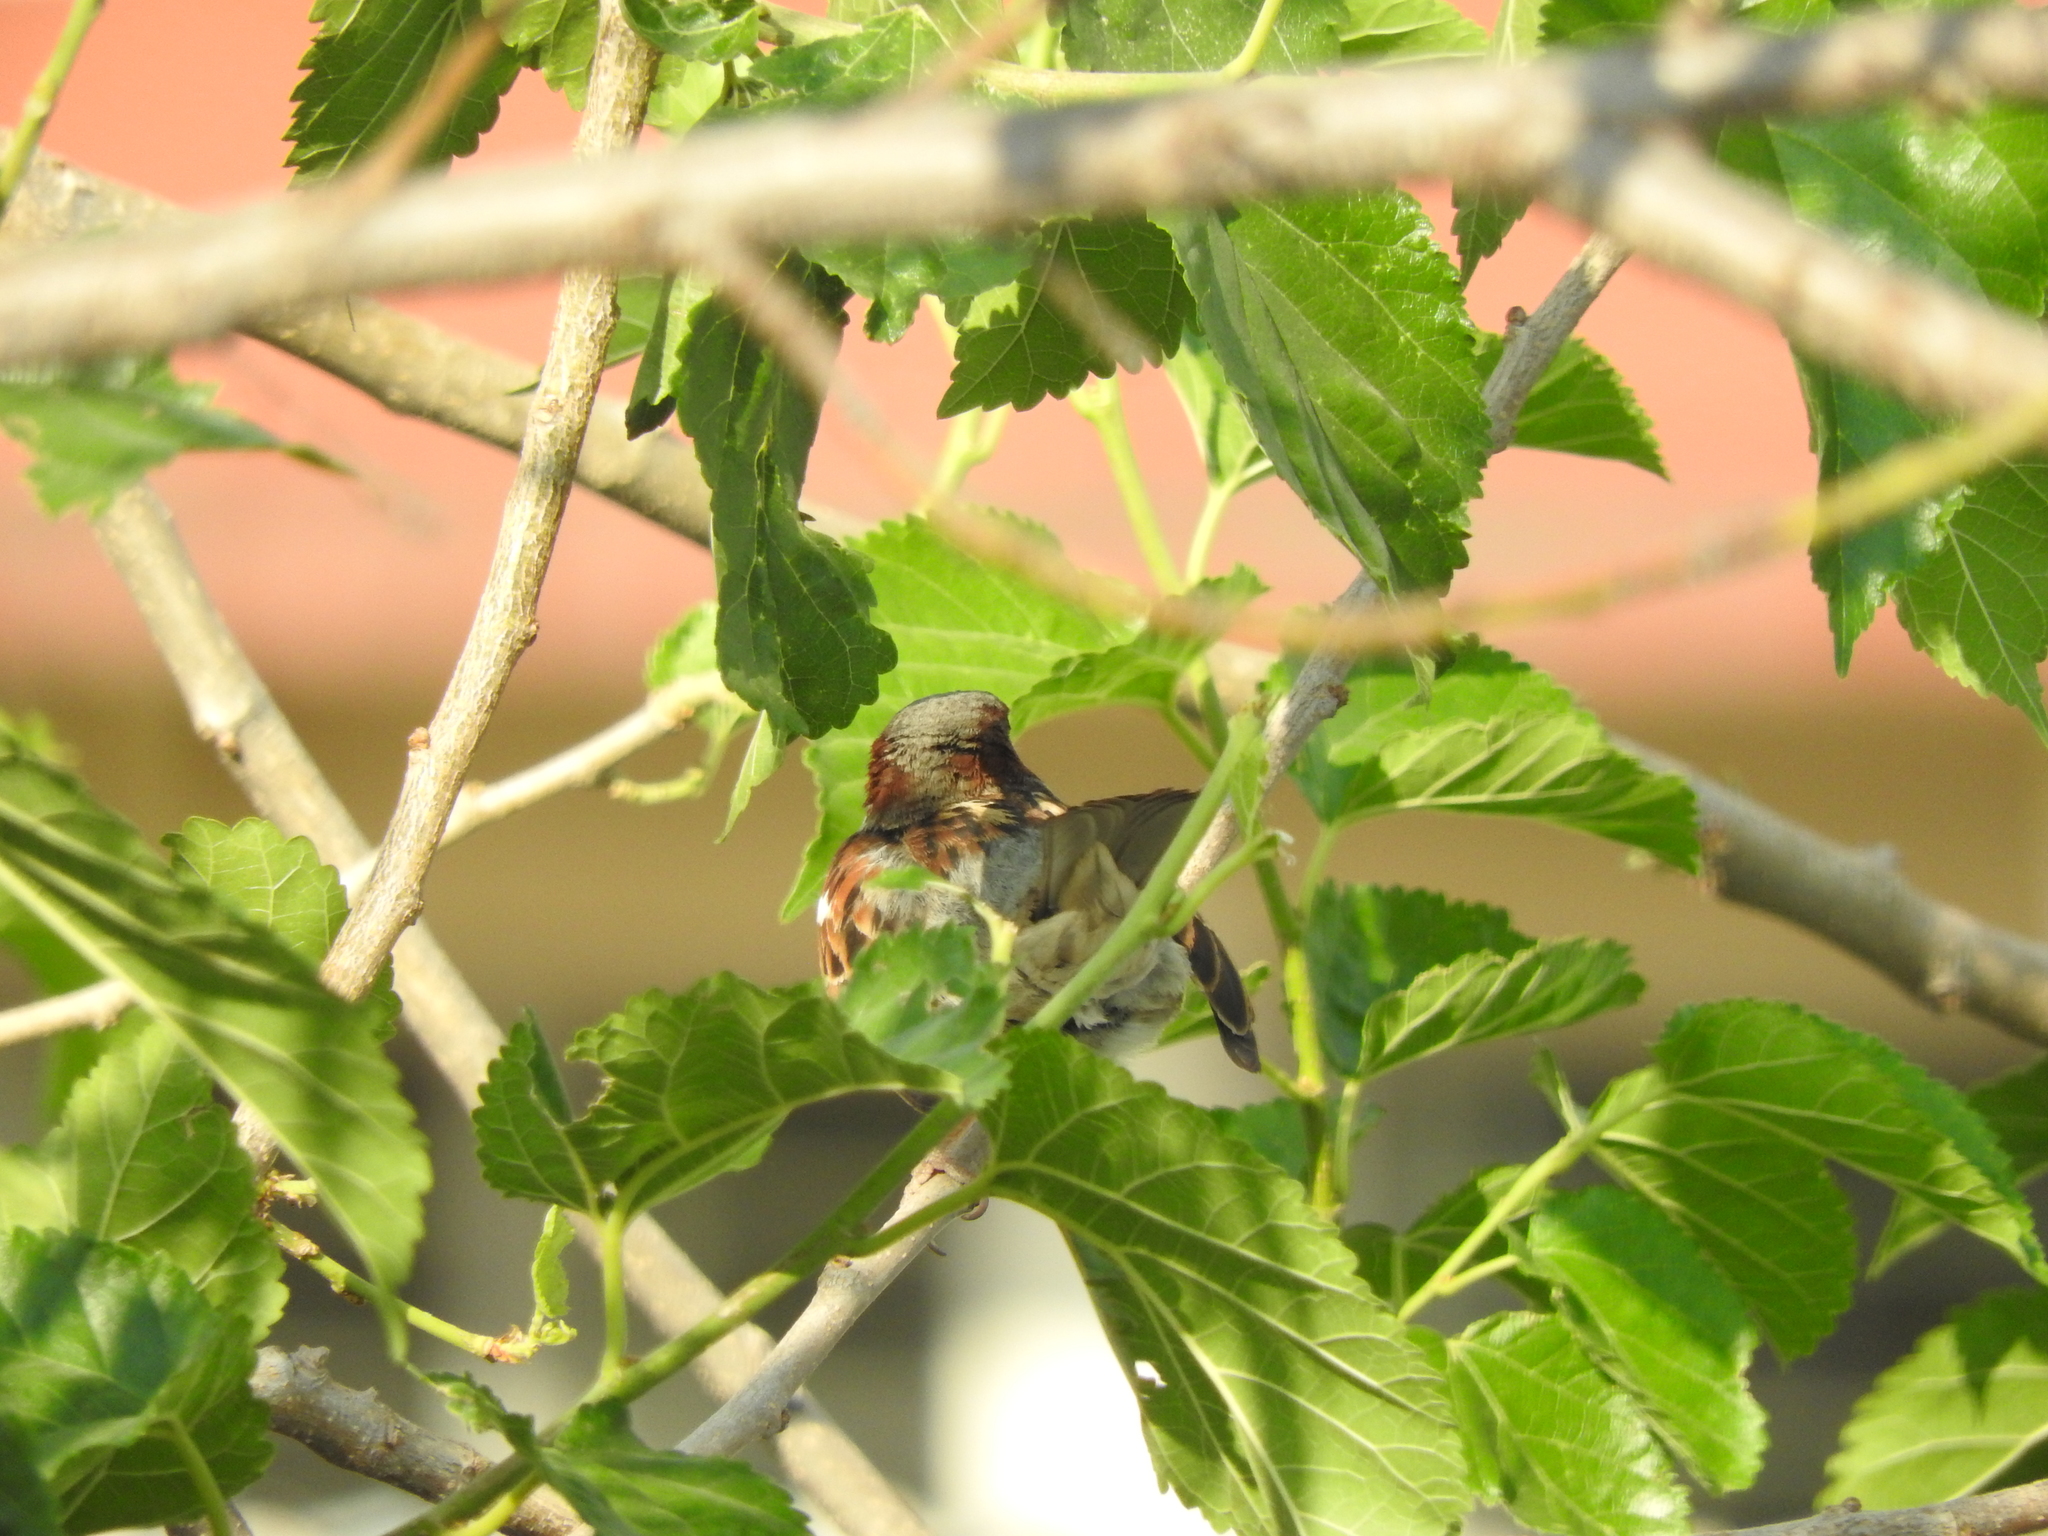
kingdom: Animalia
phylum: Chordata
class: Aves
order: Passeriformes
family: Passeridae
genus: Passer
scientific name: Passer domesticus
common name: House sparrow
